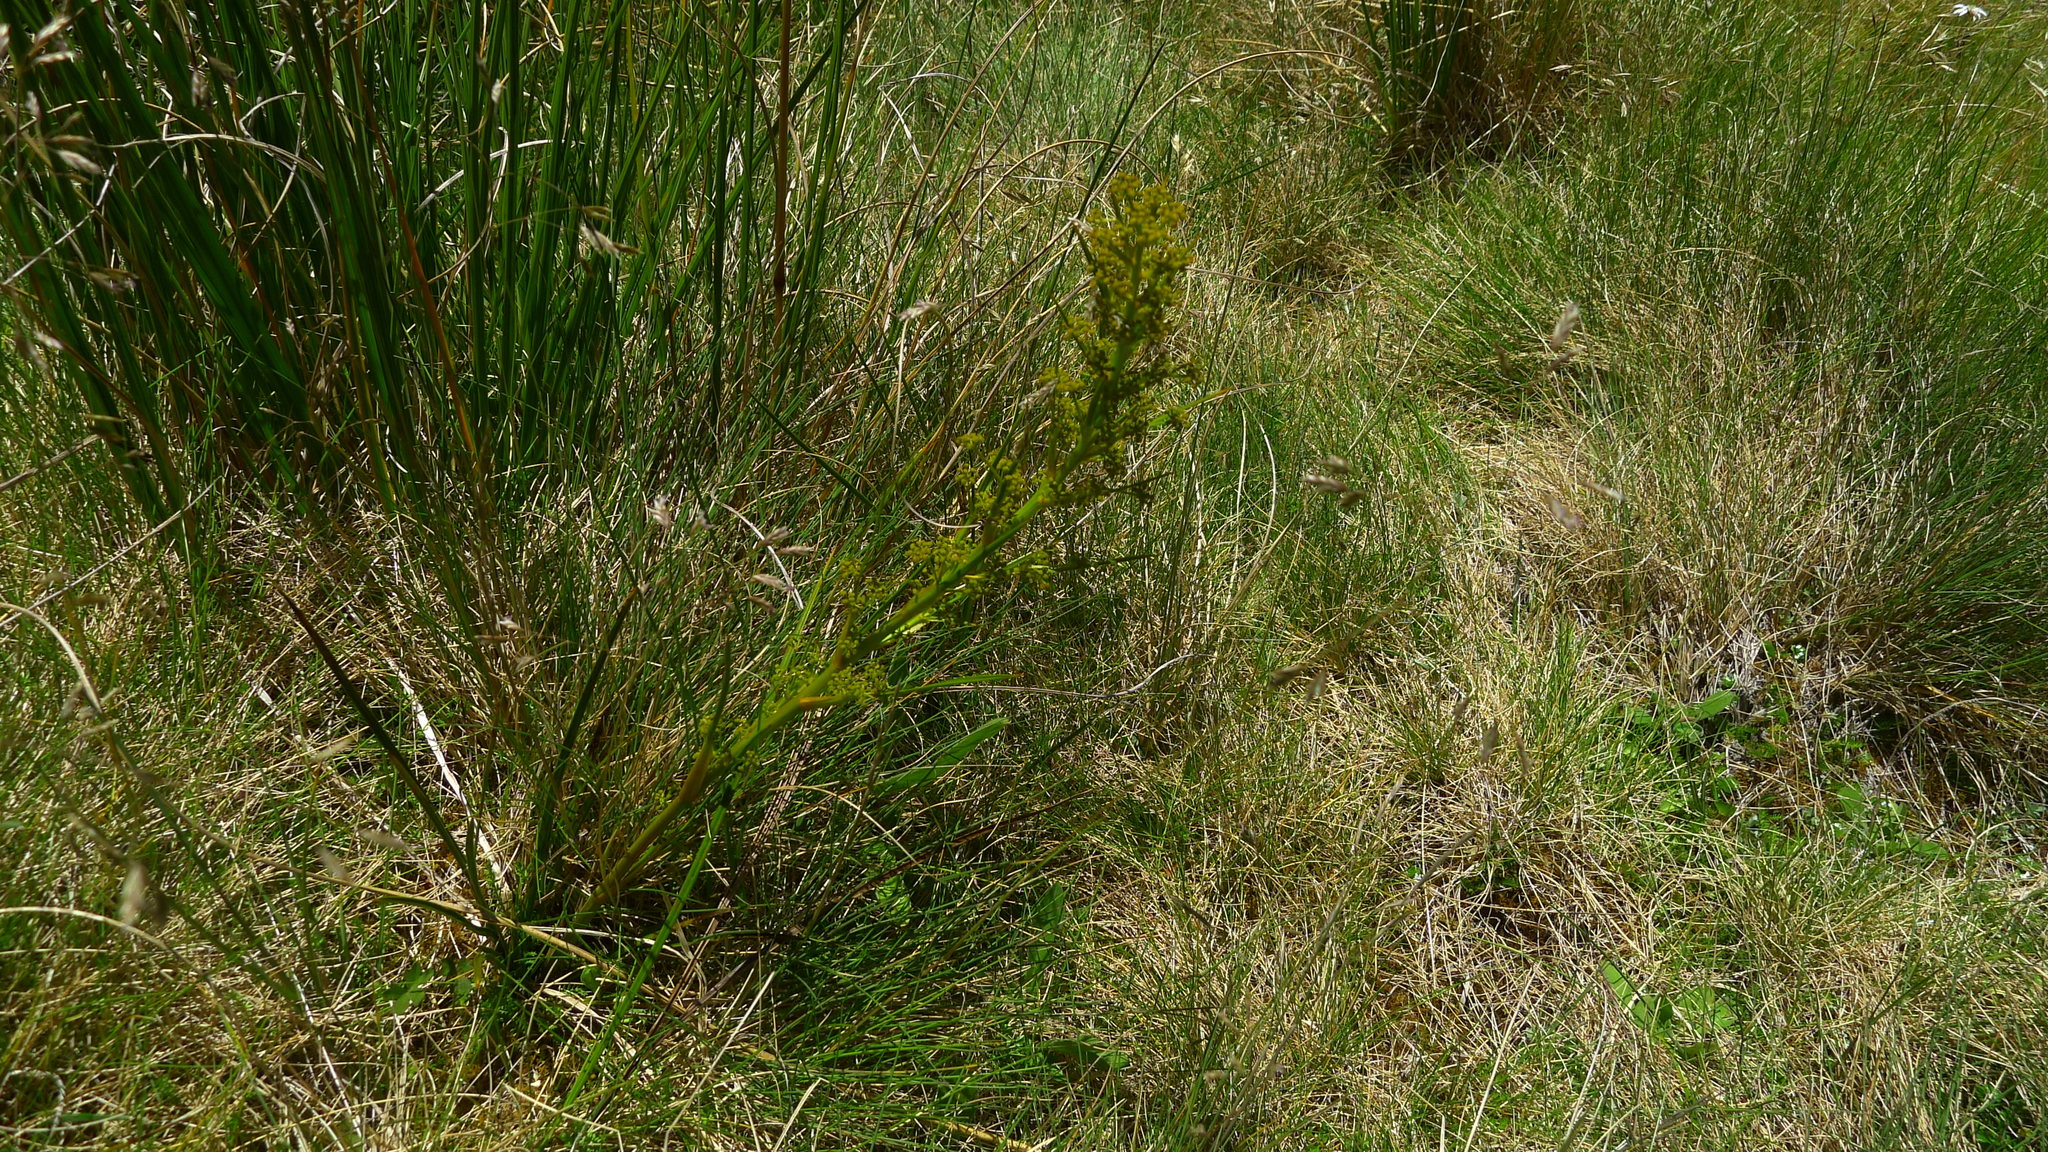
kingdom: Plantae
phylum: Tracheophyta
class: Magnoliopsida
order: Apiales
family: Apiaceae
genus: Aciphylla
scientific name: Aciphylla crenulata
